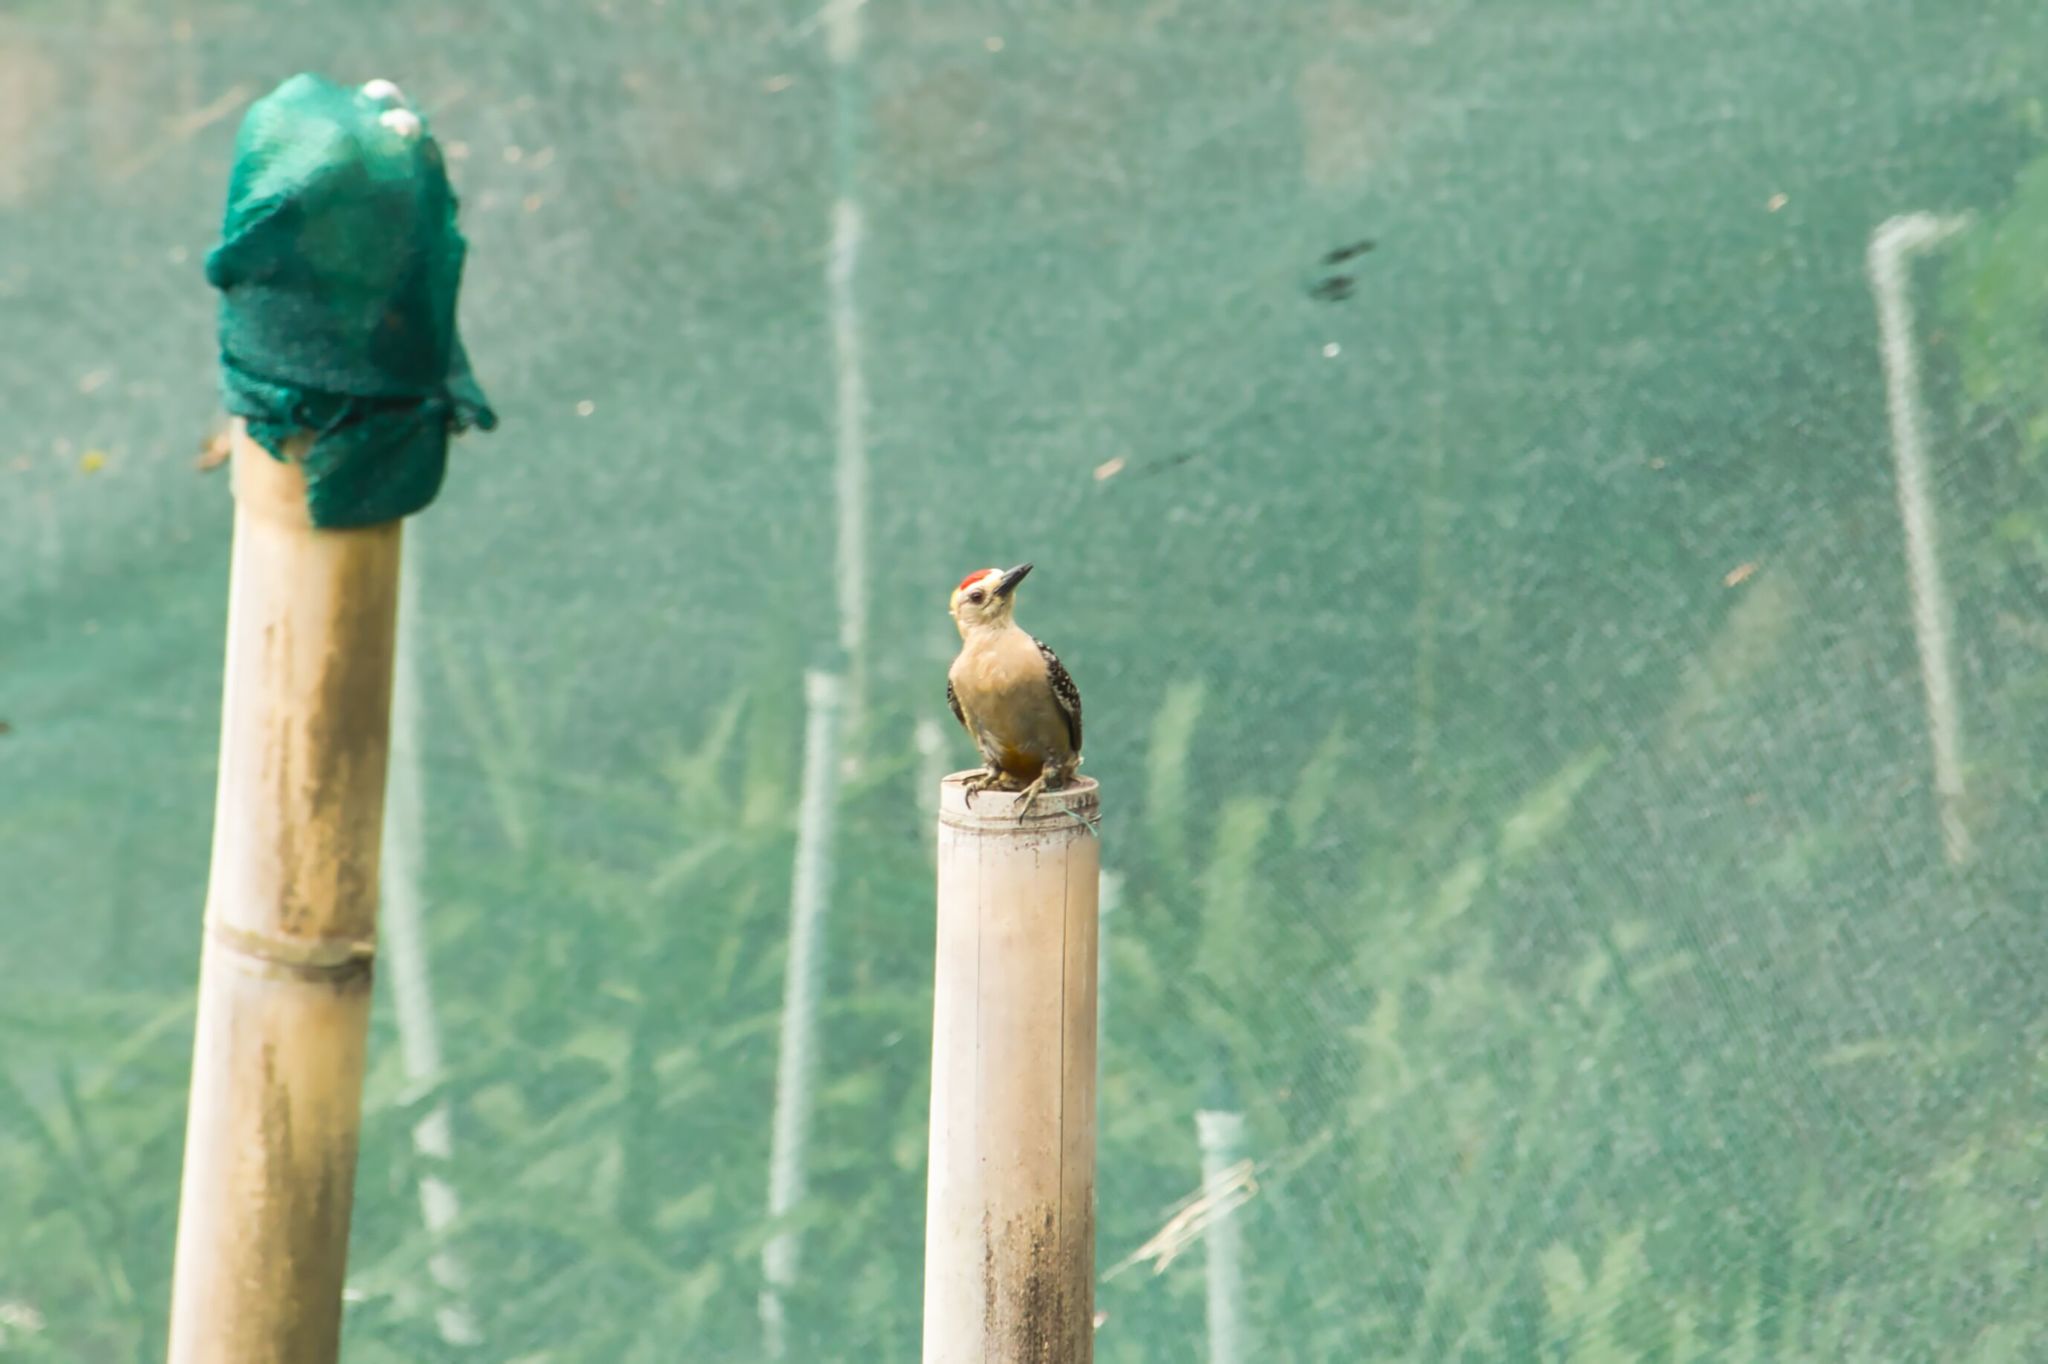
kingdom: Animalia
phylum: Chordata
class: Aves
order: Piciformes
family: Picidae
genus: Melanerpes
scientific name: Melanerpes hoffmannii
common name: Hoffmann's woodpecker
